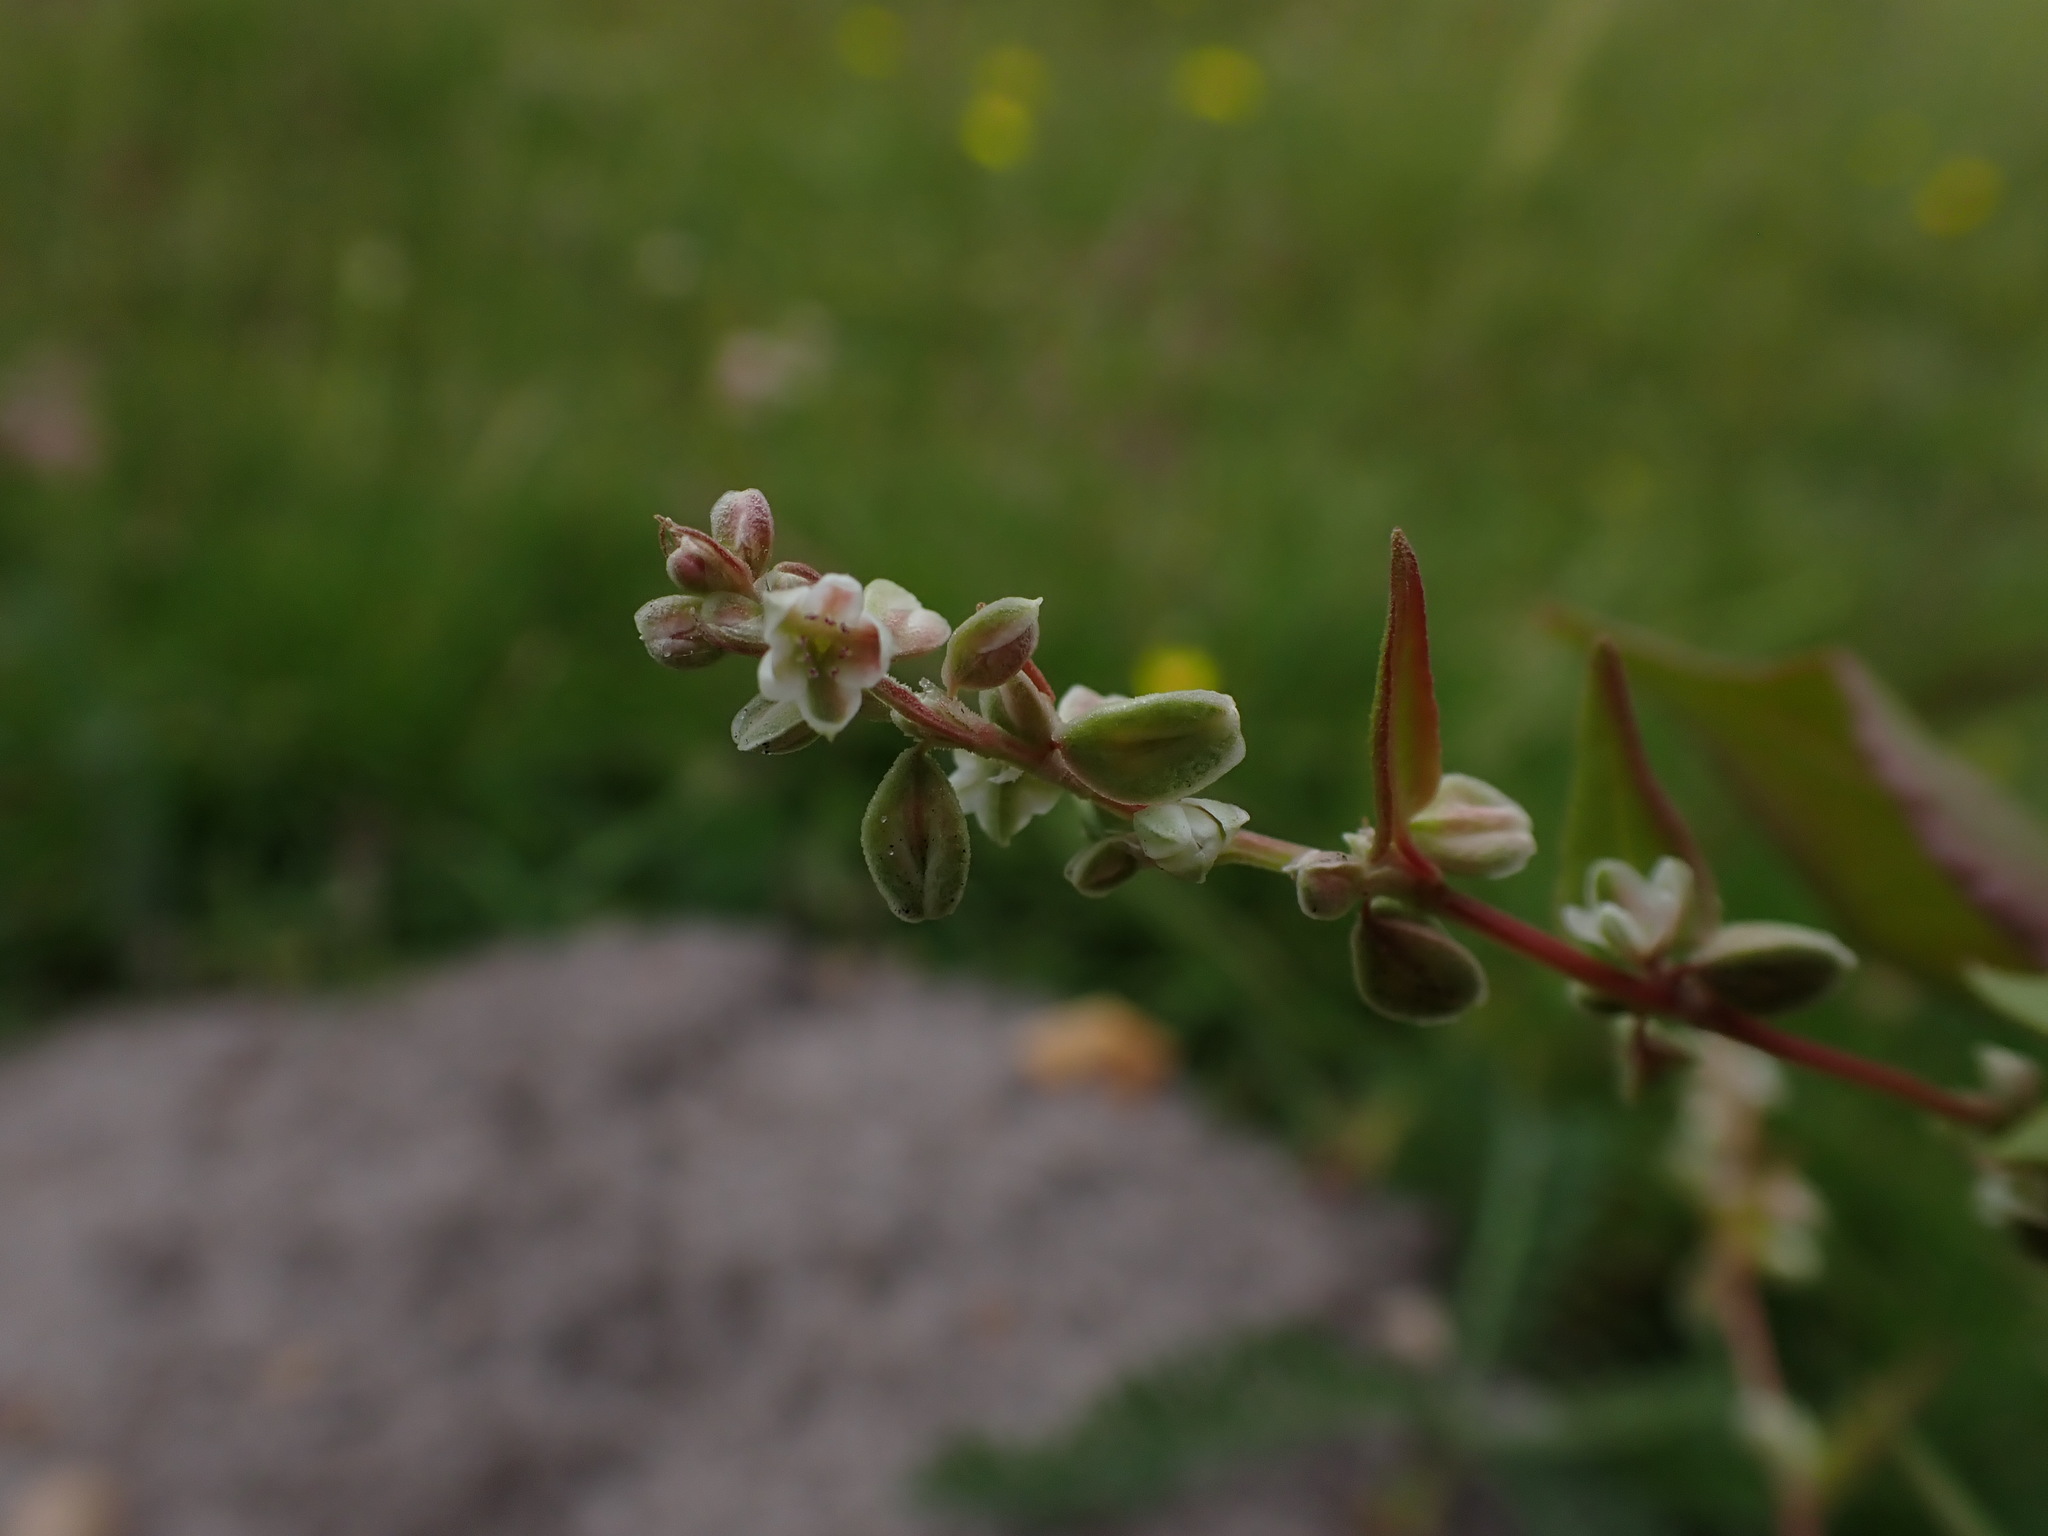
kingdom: Plantae
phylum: Tracheophyta
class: Magnoliopsida
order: Caryophyllales
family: Polygonaceae
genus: Fallopia
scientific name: Fallopia convolvulus
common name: Black bindweed
